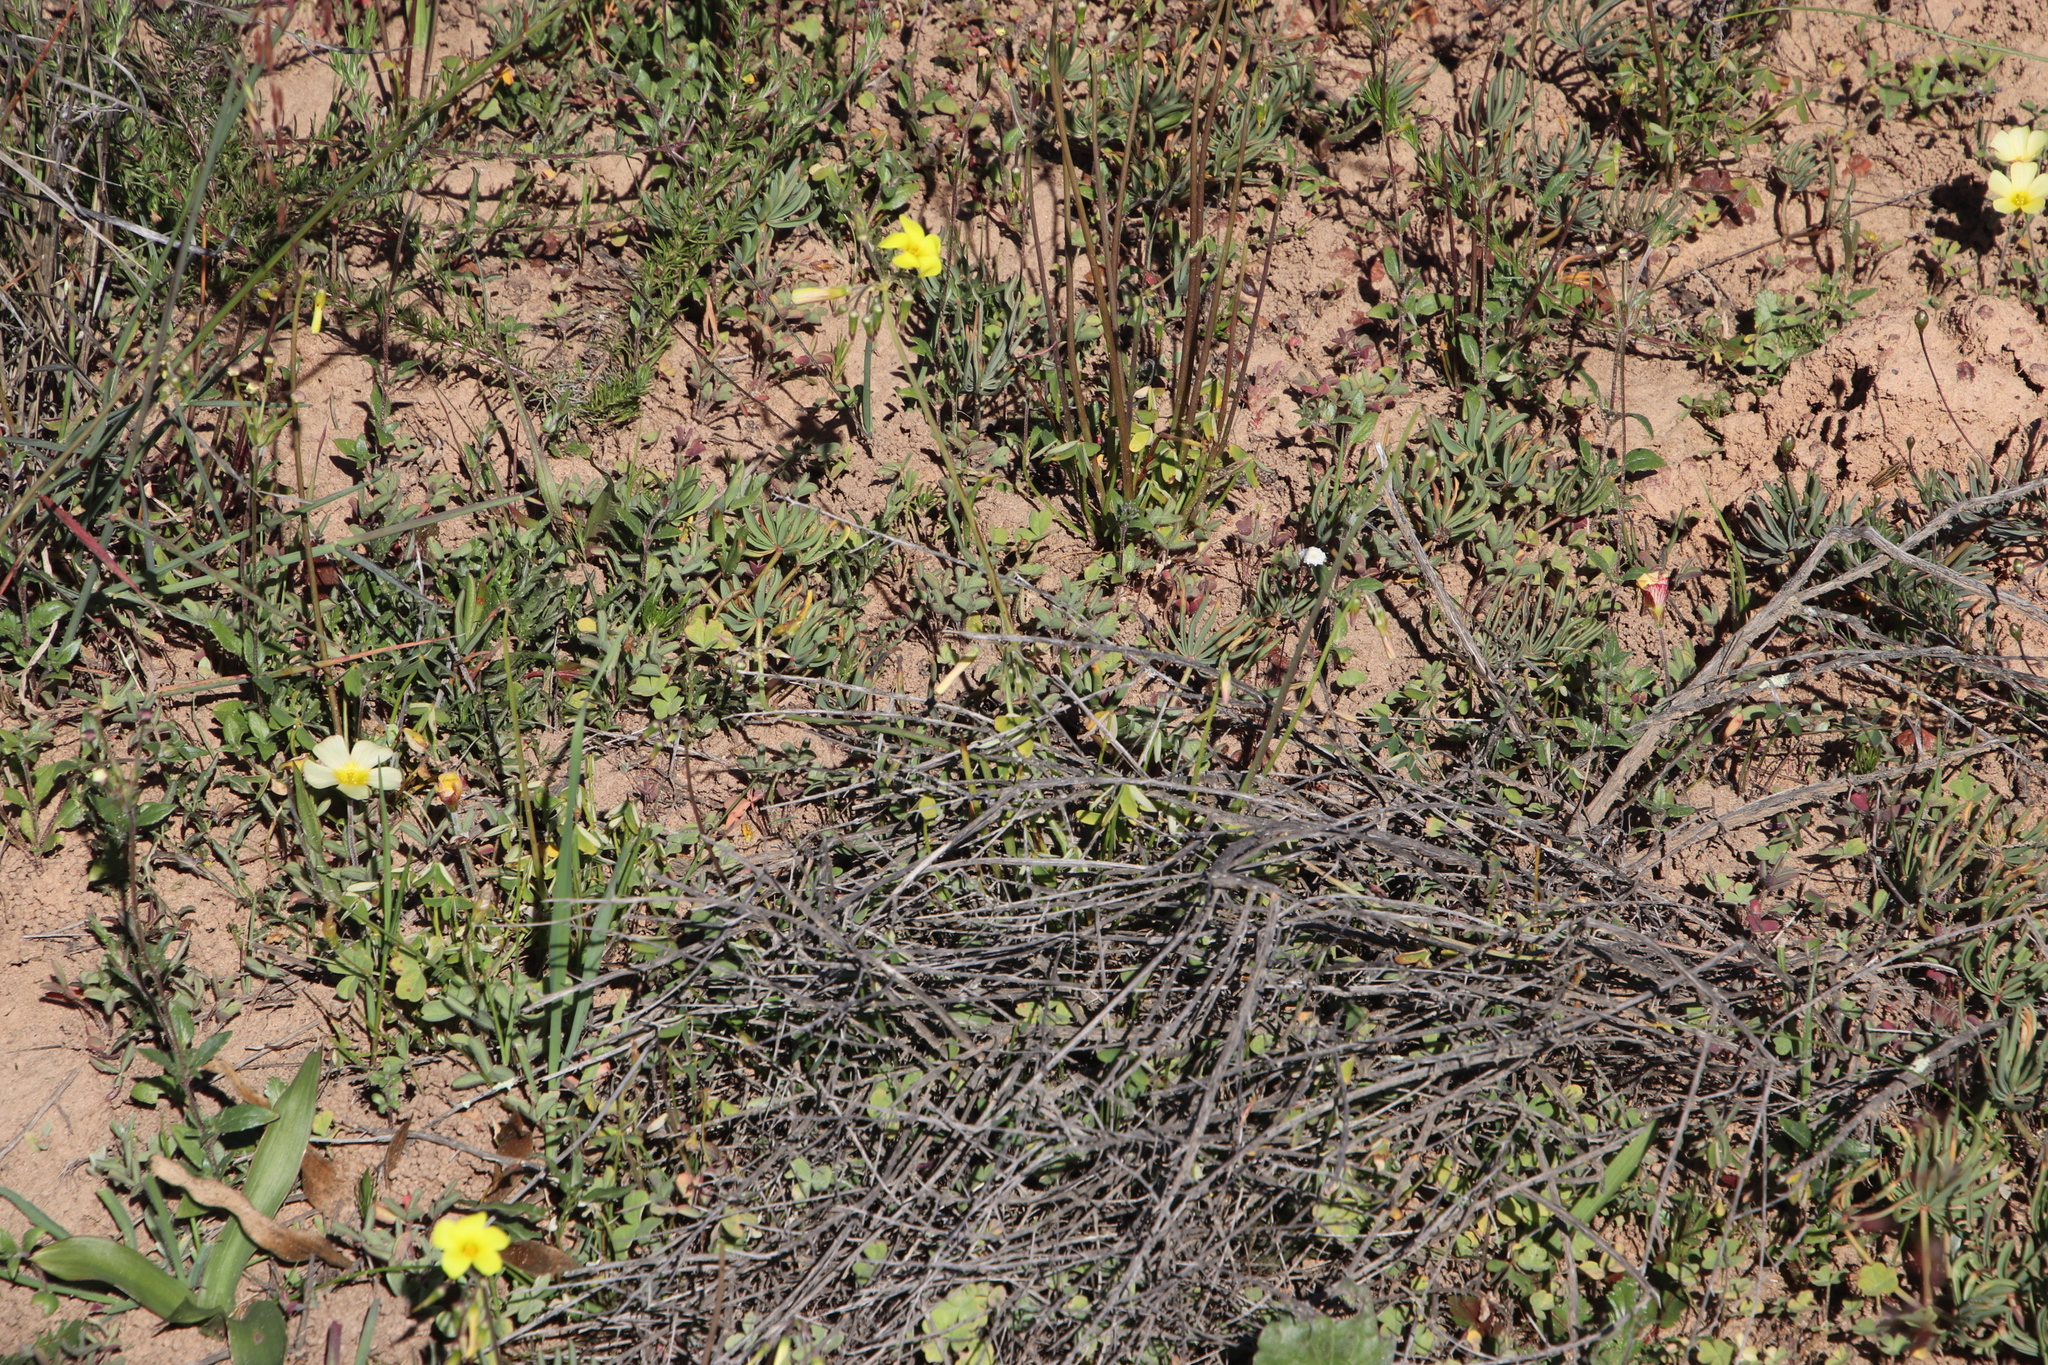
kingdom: Plantae
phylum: Tracheophyta
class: Magnoliopsida
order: Oxalidales
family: Oxalidaceae
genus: Oxalis
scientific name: Oxalis flava
